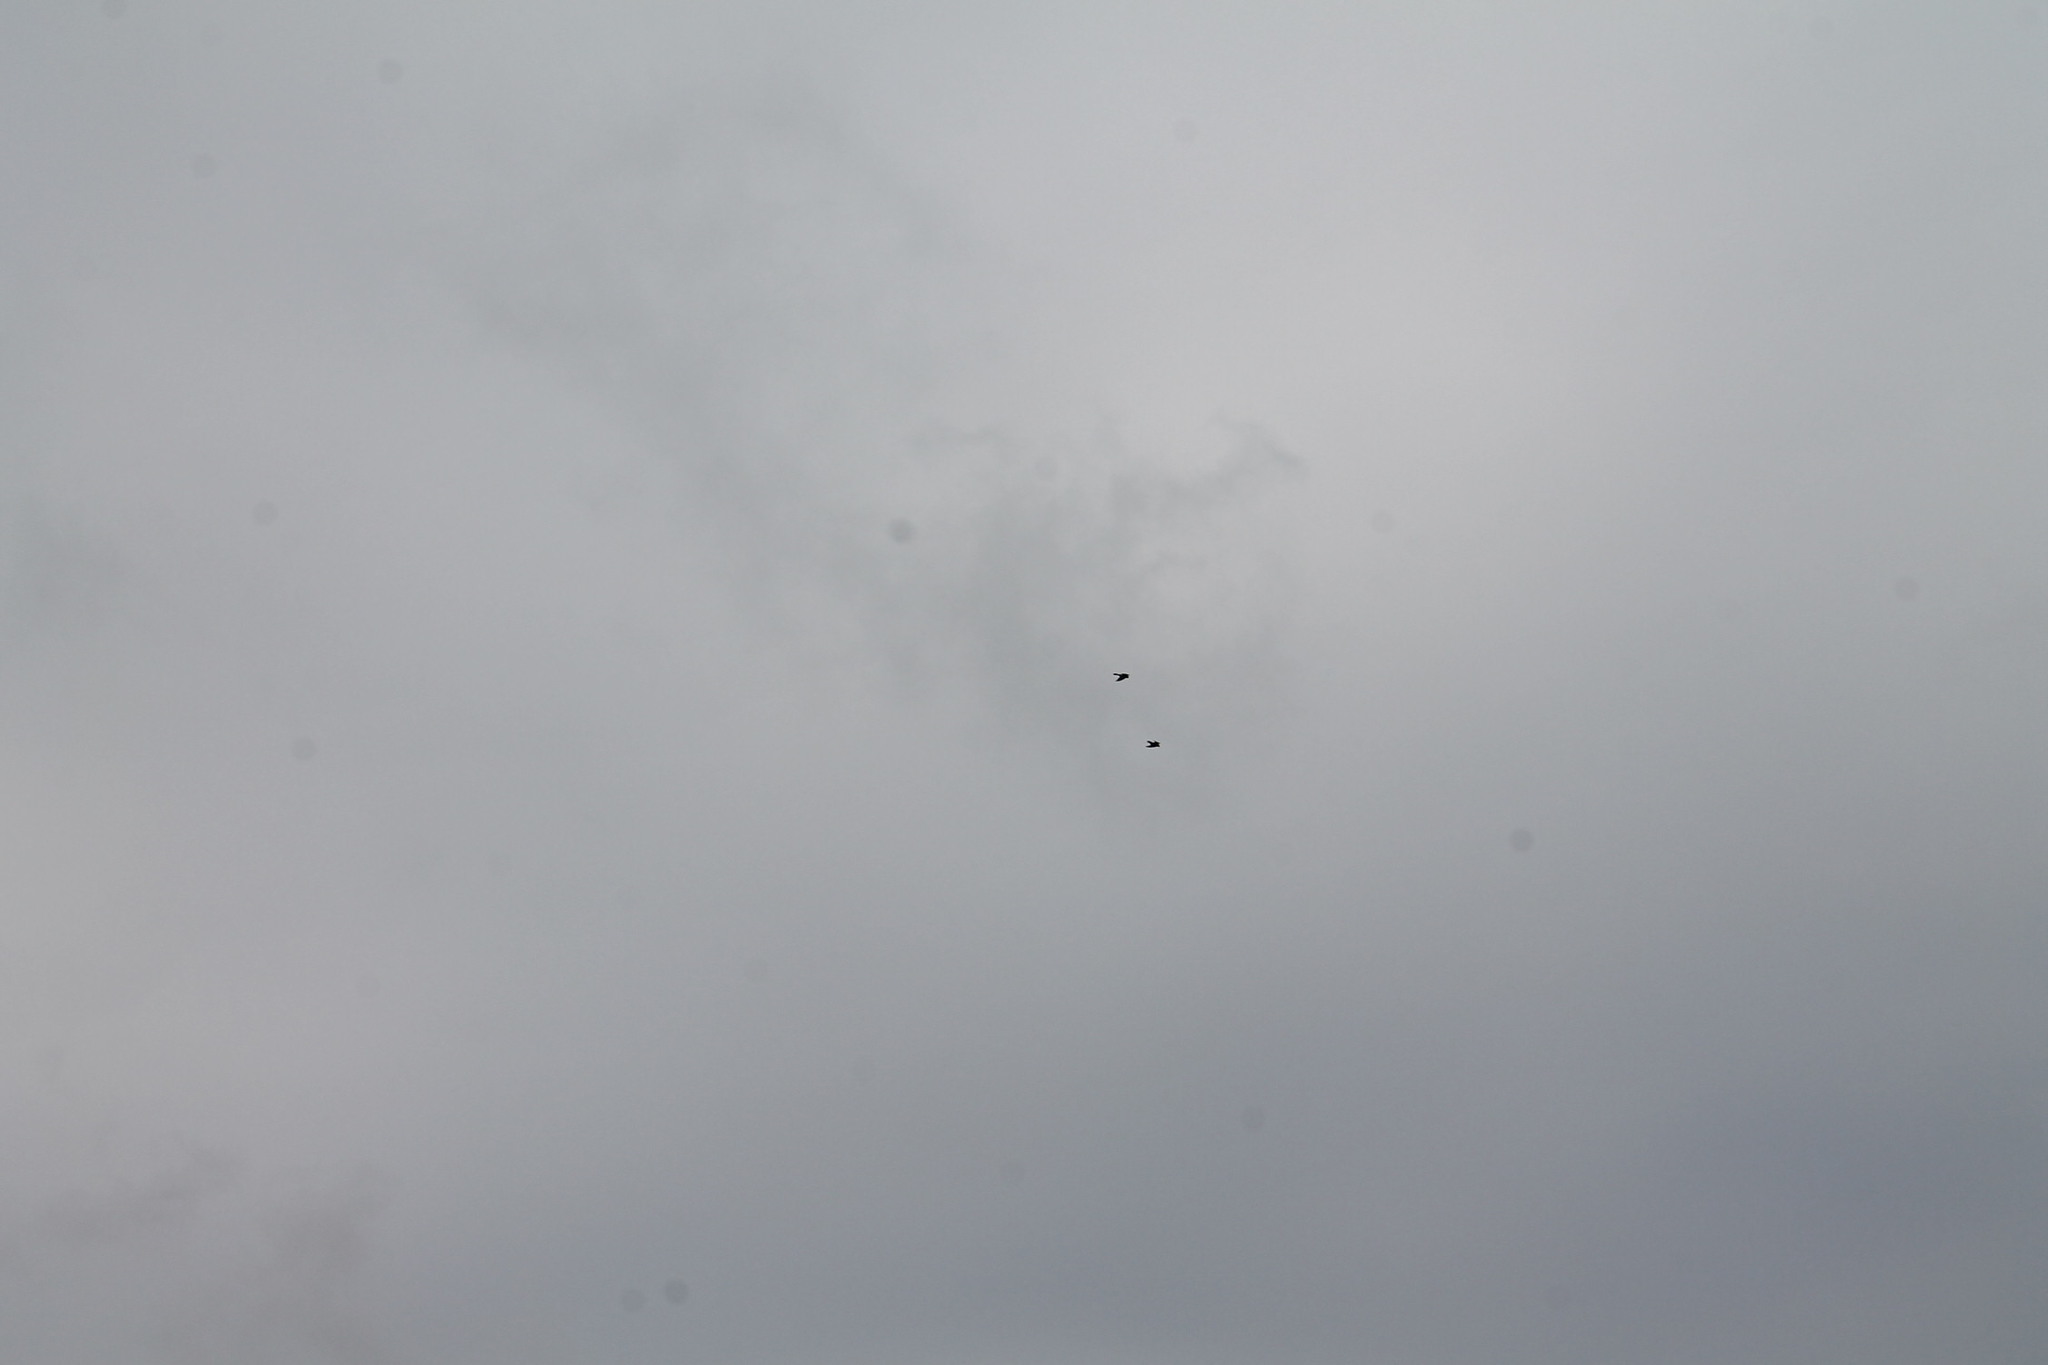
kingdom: Animalia
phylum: Chordata
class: Aves
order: Falconiformes
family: Falconidae
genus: Falco
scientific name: Falco sparverius
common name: American kestrel
